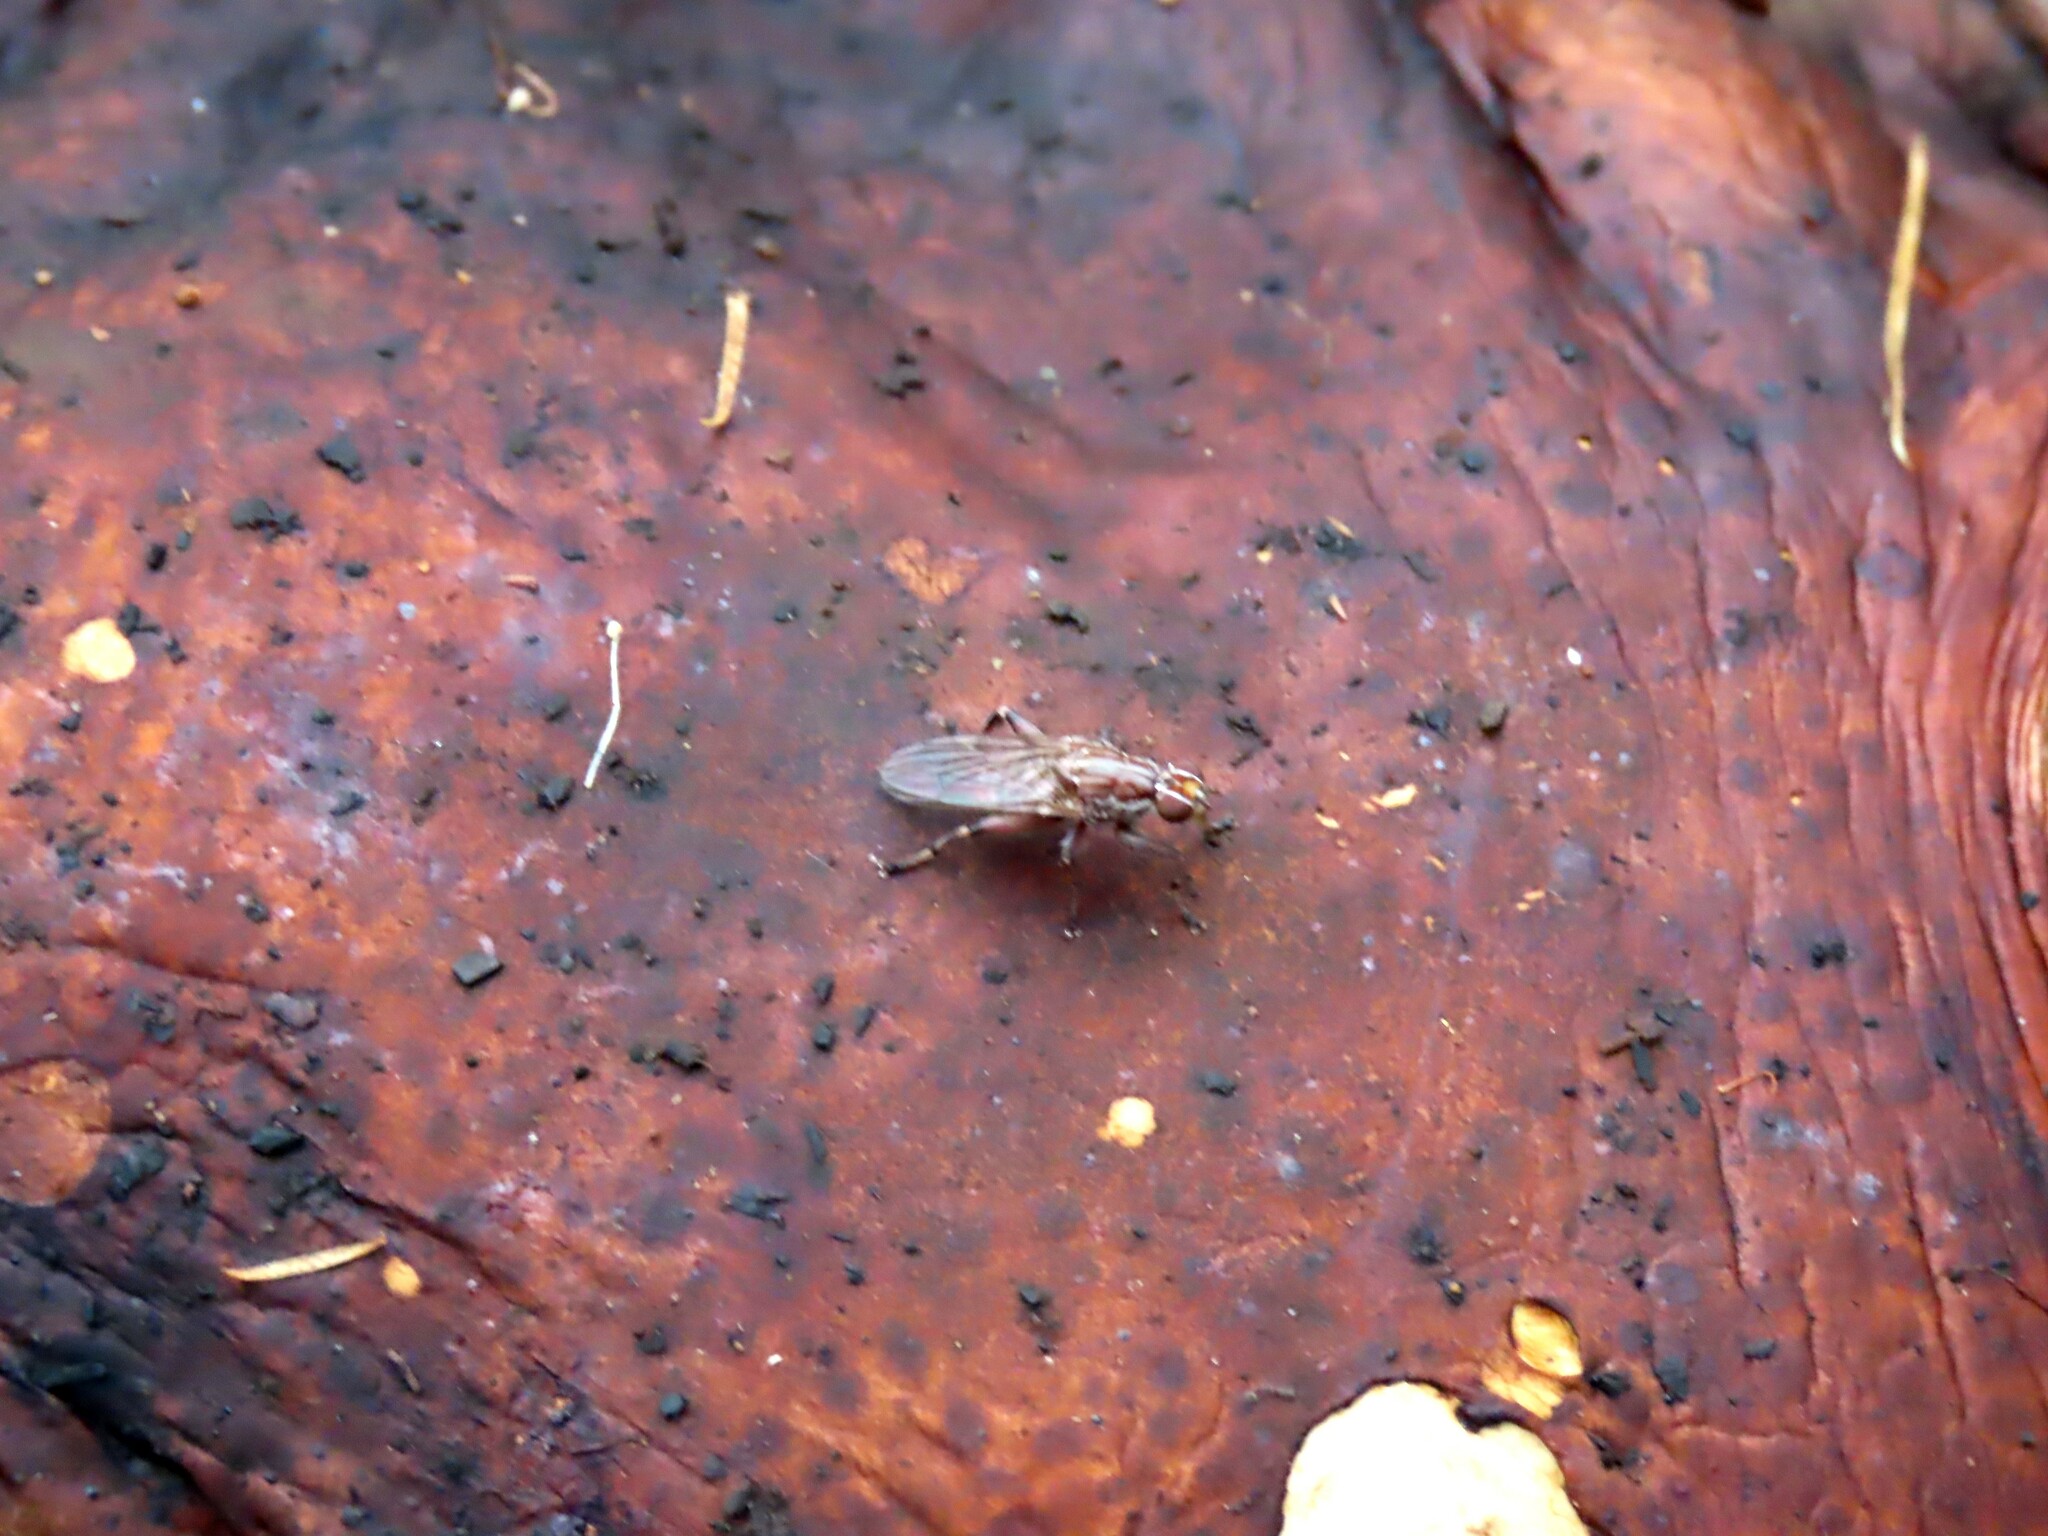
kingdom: Animalia
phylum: Arthropoda
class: Insecta
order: Diptera
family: Heleomyzidae
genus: Tapeigaster
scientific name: Tapeigaster nigricornis
